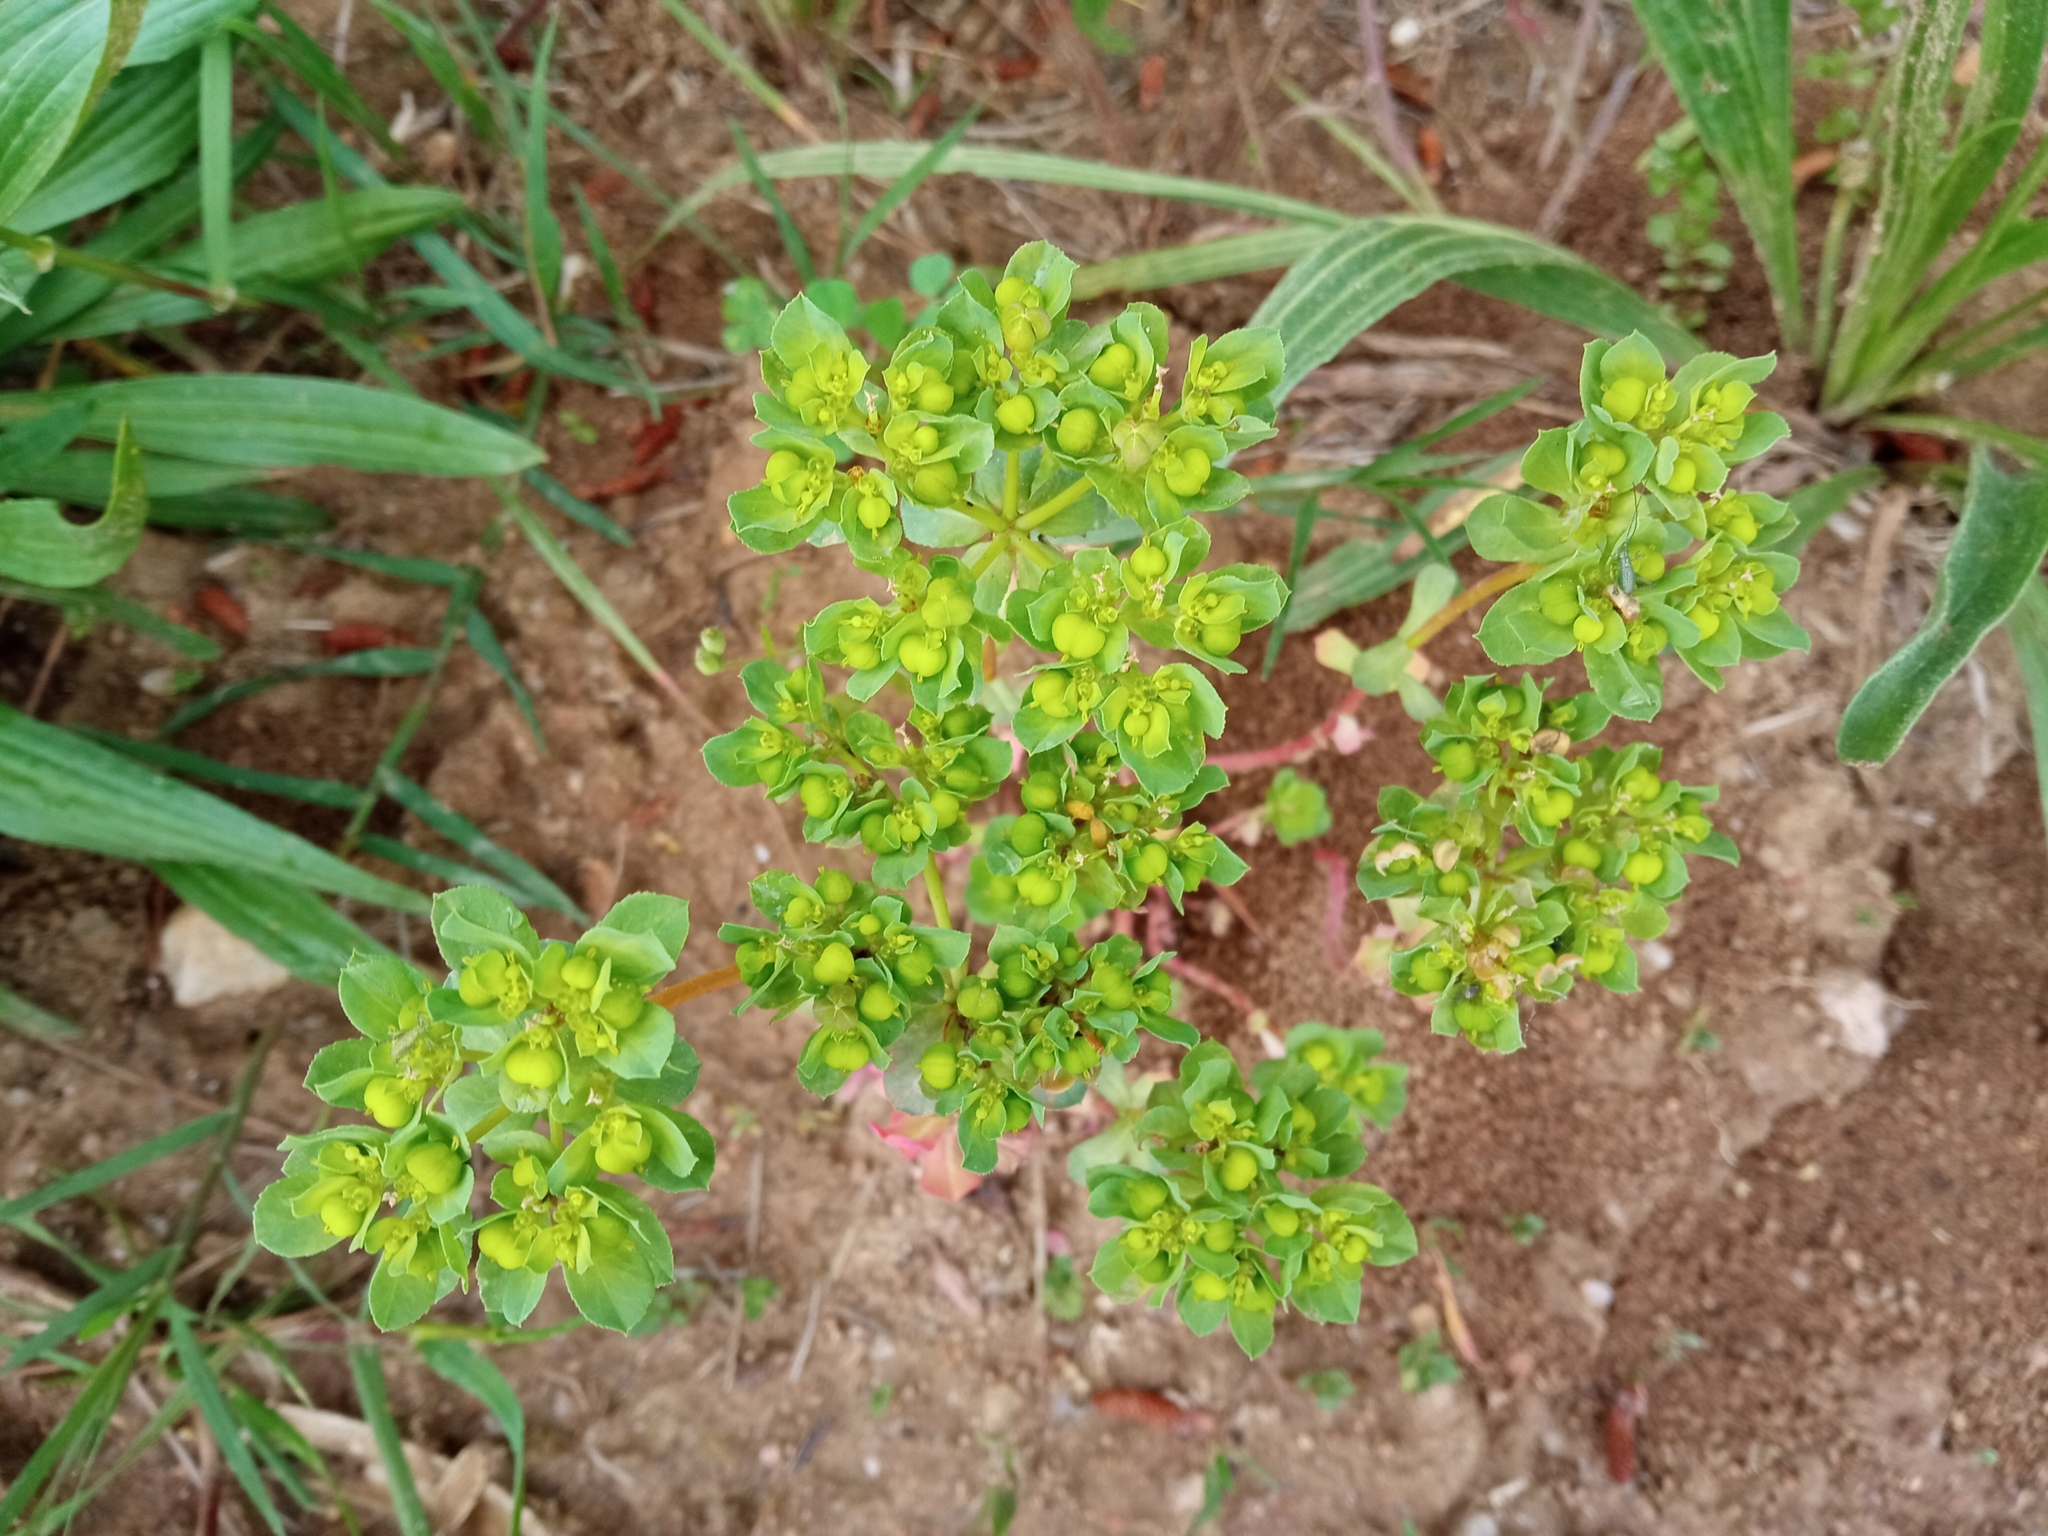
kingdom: Plantae
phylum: Tracheophyta
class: Magnoliopsida
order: Malpighiales
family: Euphorbiaceae
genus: Euphorbia
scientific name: Euphorbia helioscopia
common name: Sun spurge
